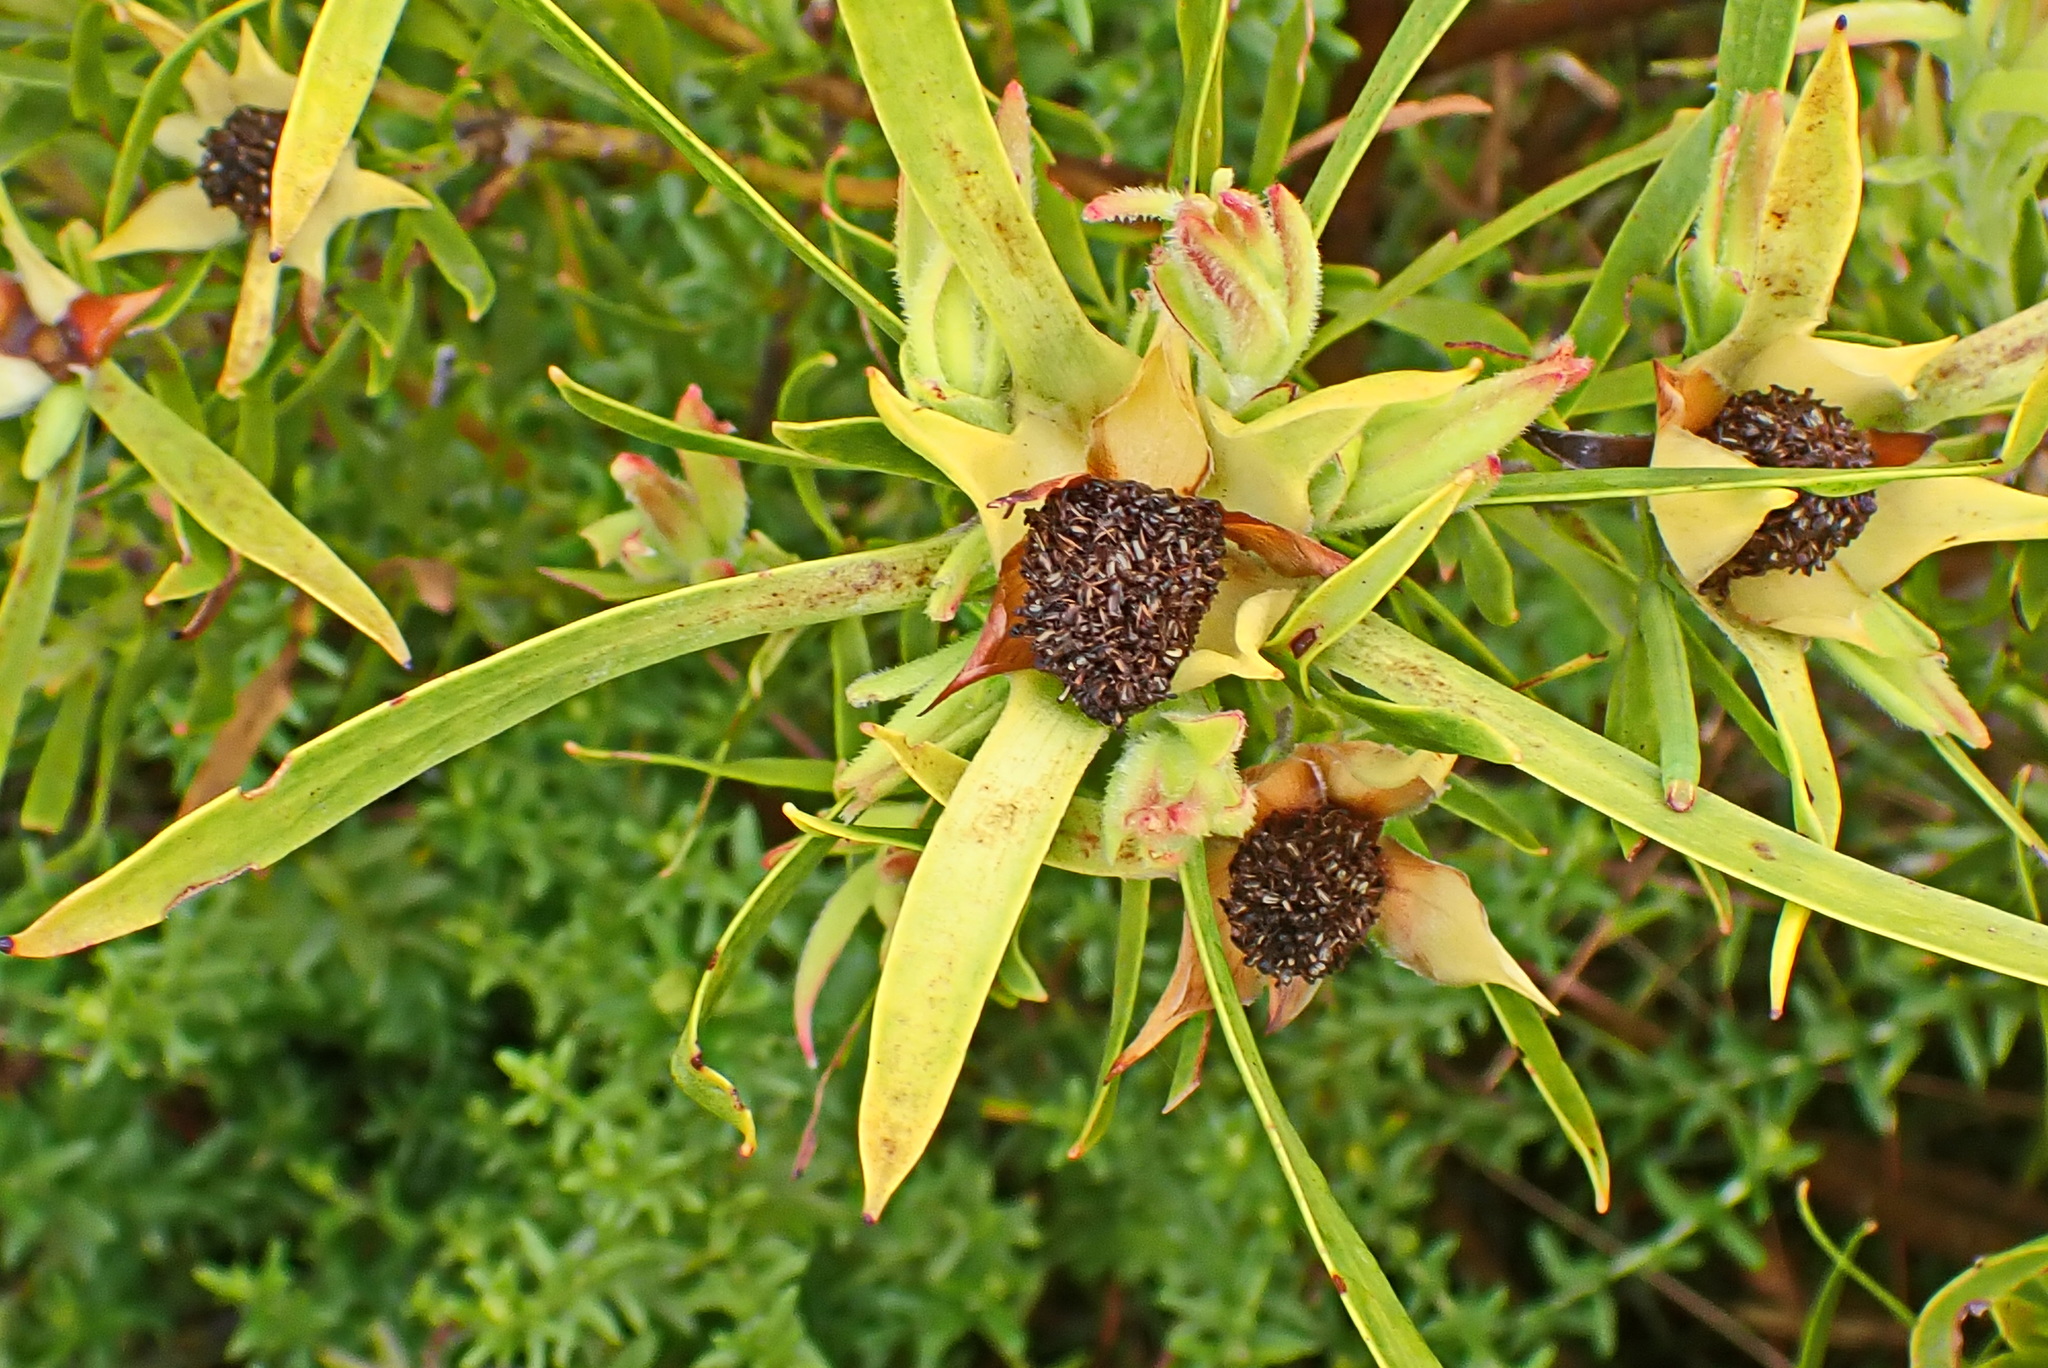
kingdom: Plantae
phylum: Tracheophyta
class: Magnoliopsida
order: Proteales
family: Proteaceae
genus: Leucadendron
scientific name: Leucadendron eucalyptifolium
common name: Gum-leaved conebush
